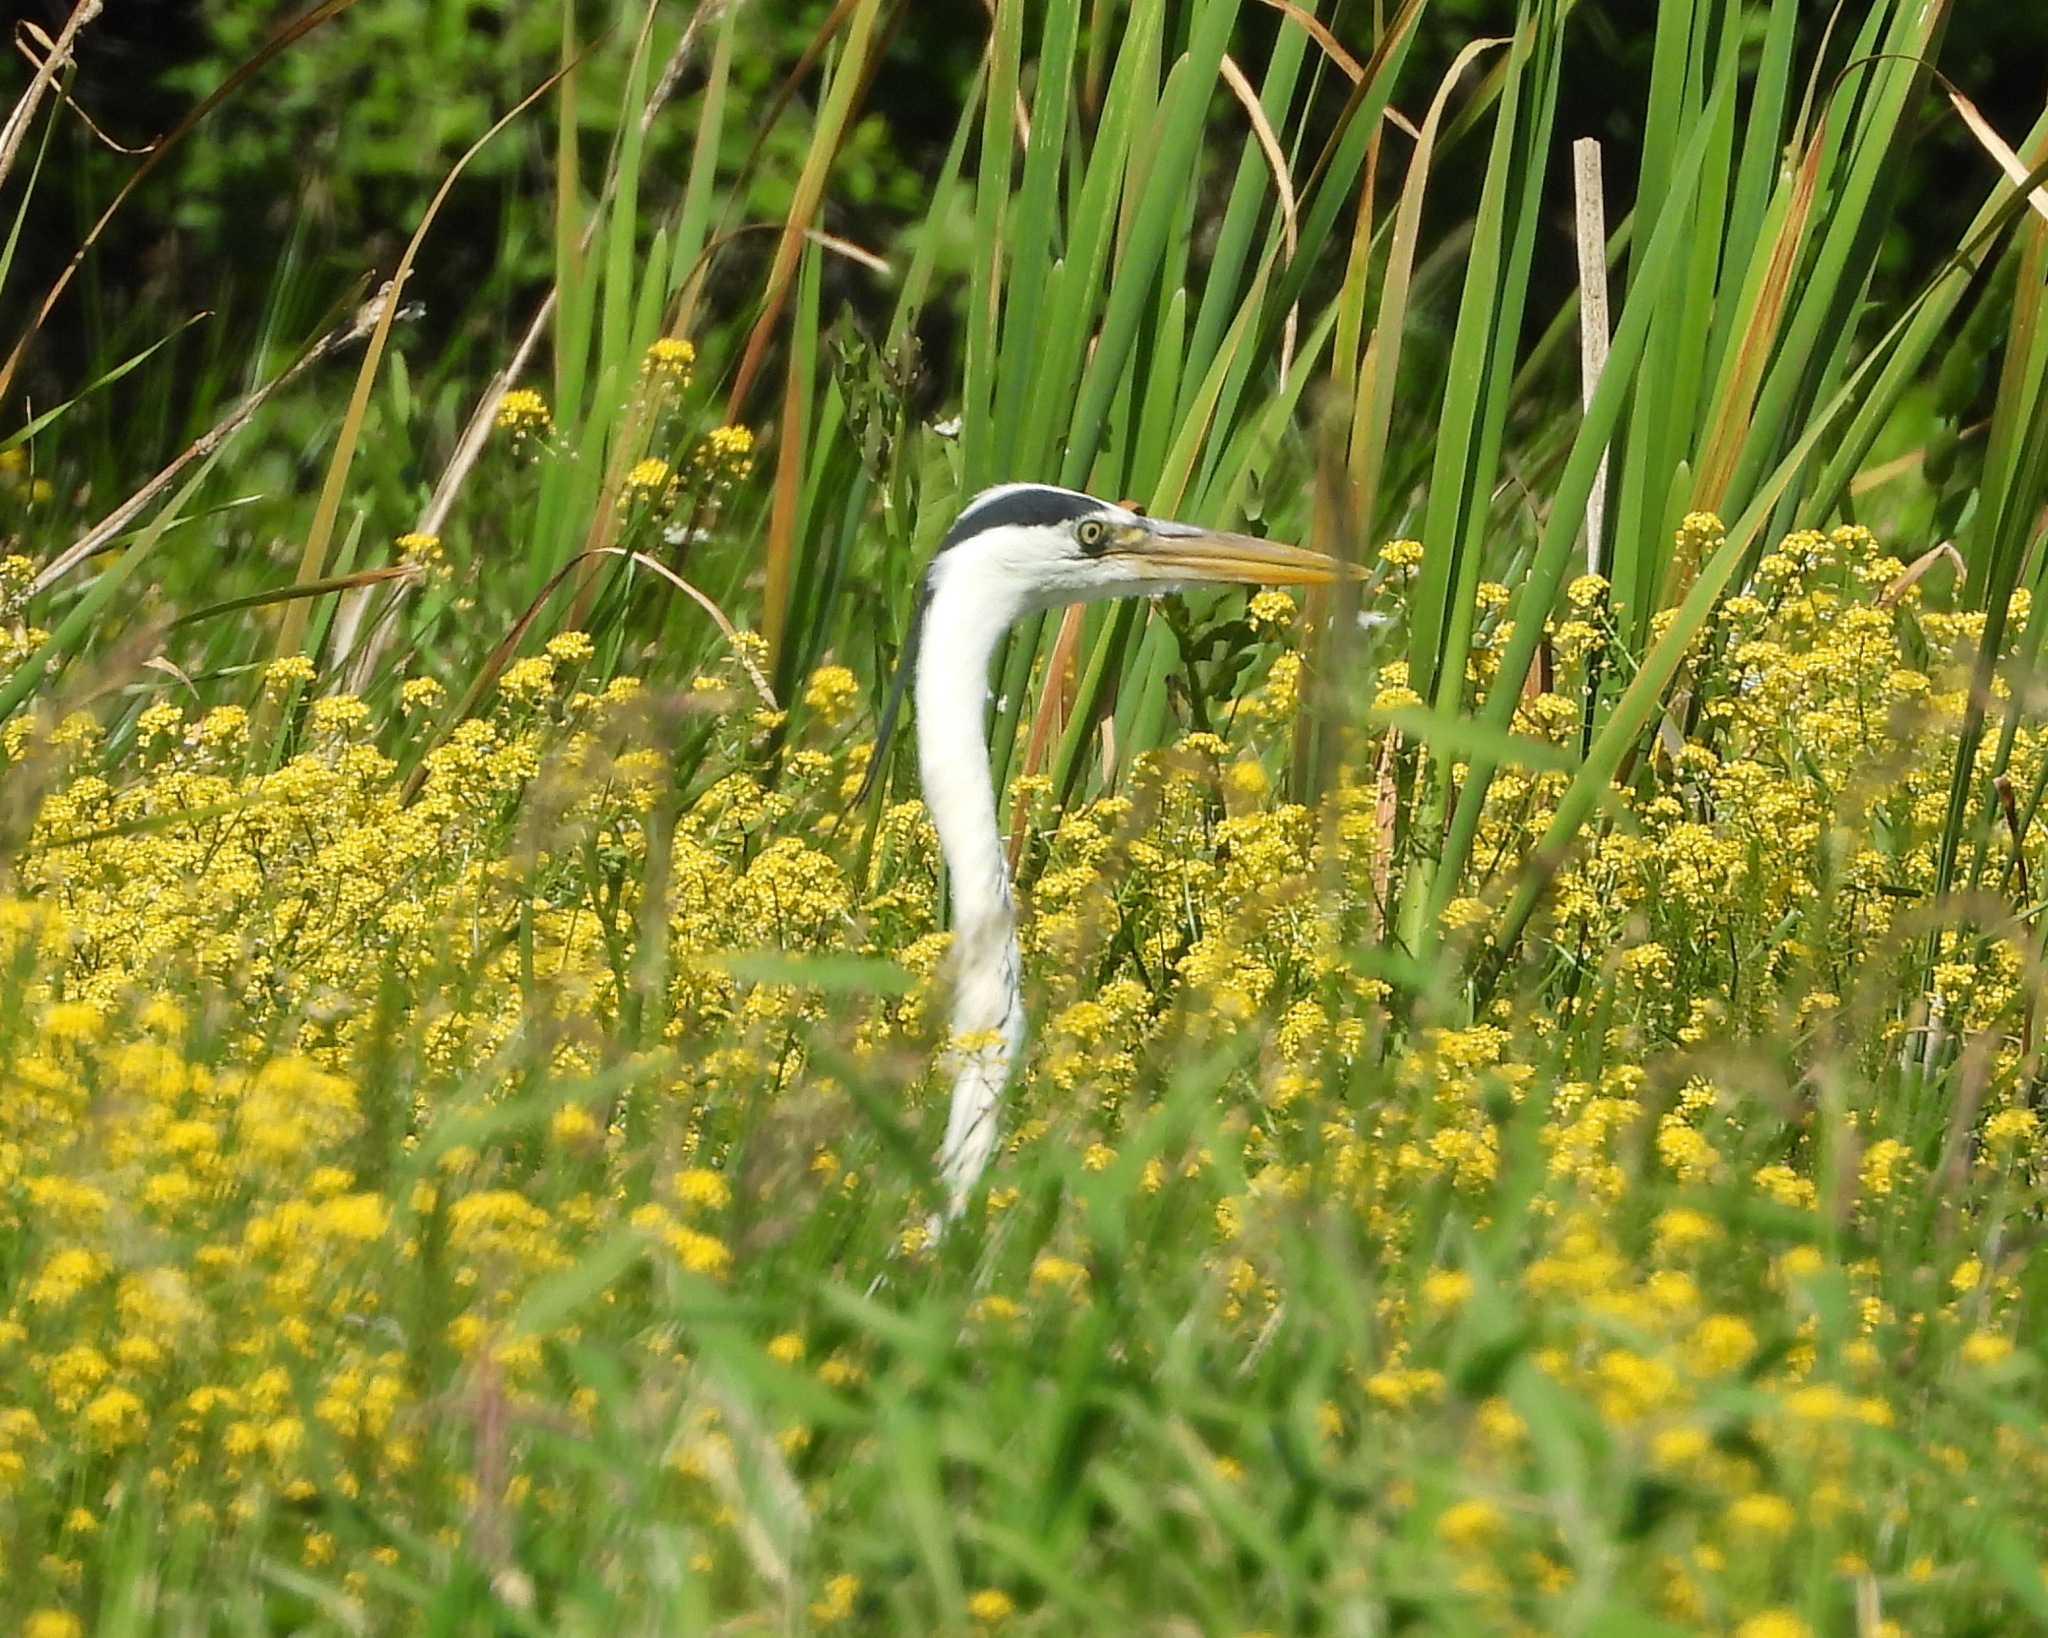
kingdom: Animalia
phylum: Chordata
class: Aves
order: Pelecaniformes
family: Ardeidae
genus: Ardea
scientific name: Ardea cinerea
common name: Grey heron
